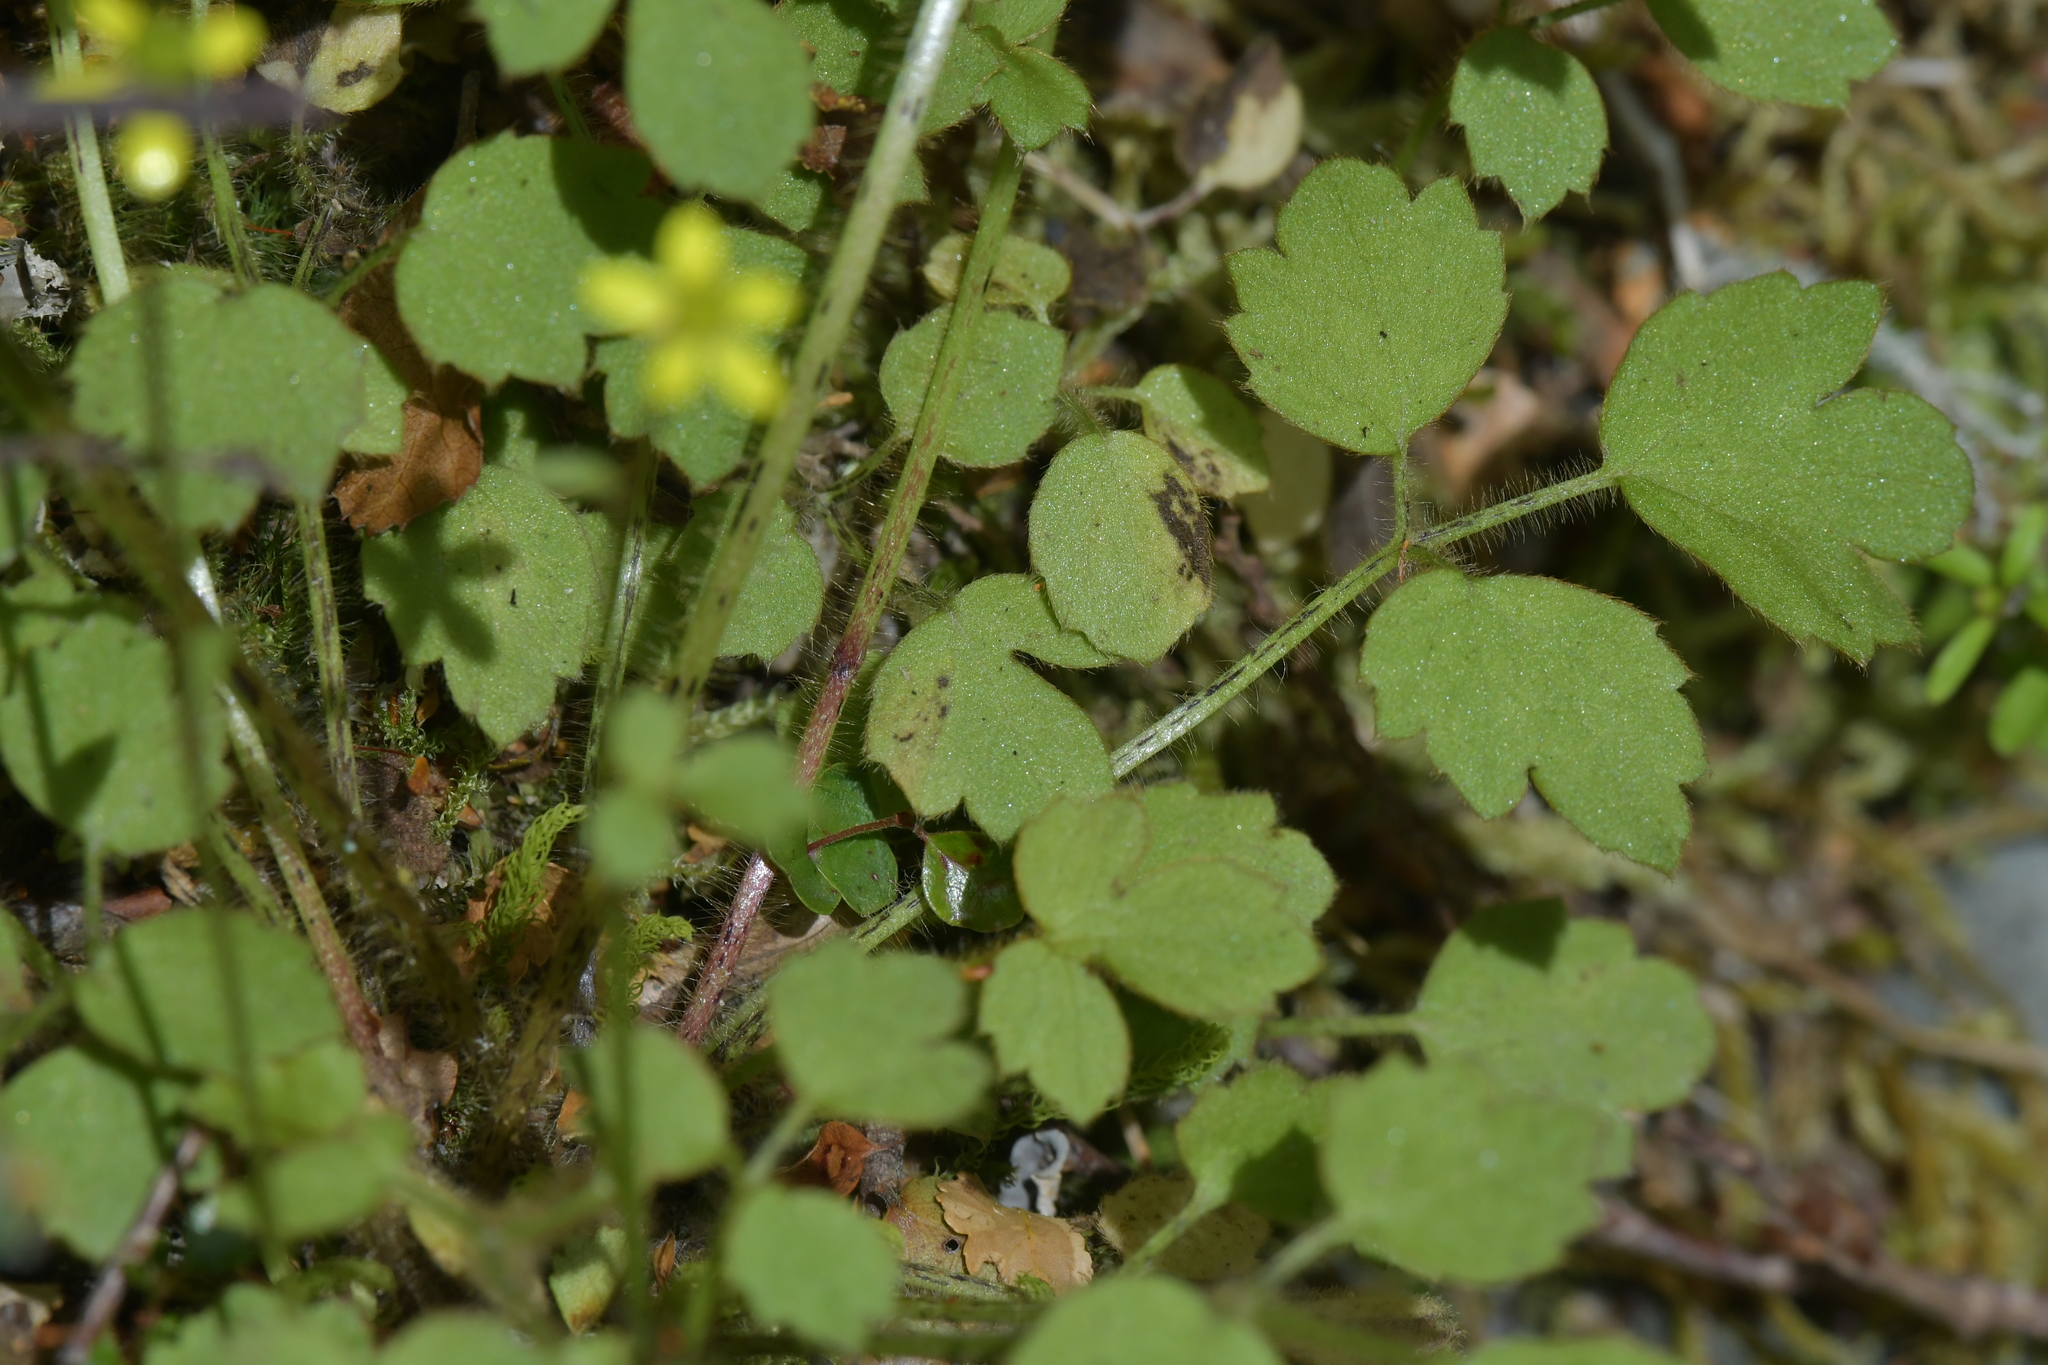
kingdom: Plantae
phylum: Tracheophyta
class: Magnoliopsida
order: Ranunculales
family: Ranunculaceae
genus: Ranunculus
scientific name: Ranunculus reflexus
